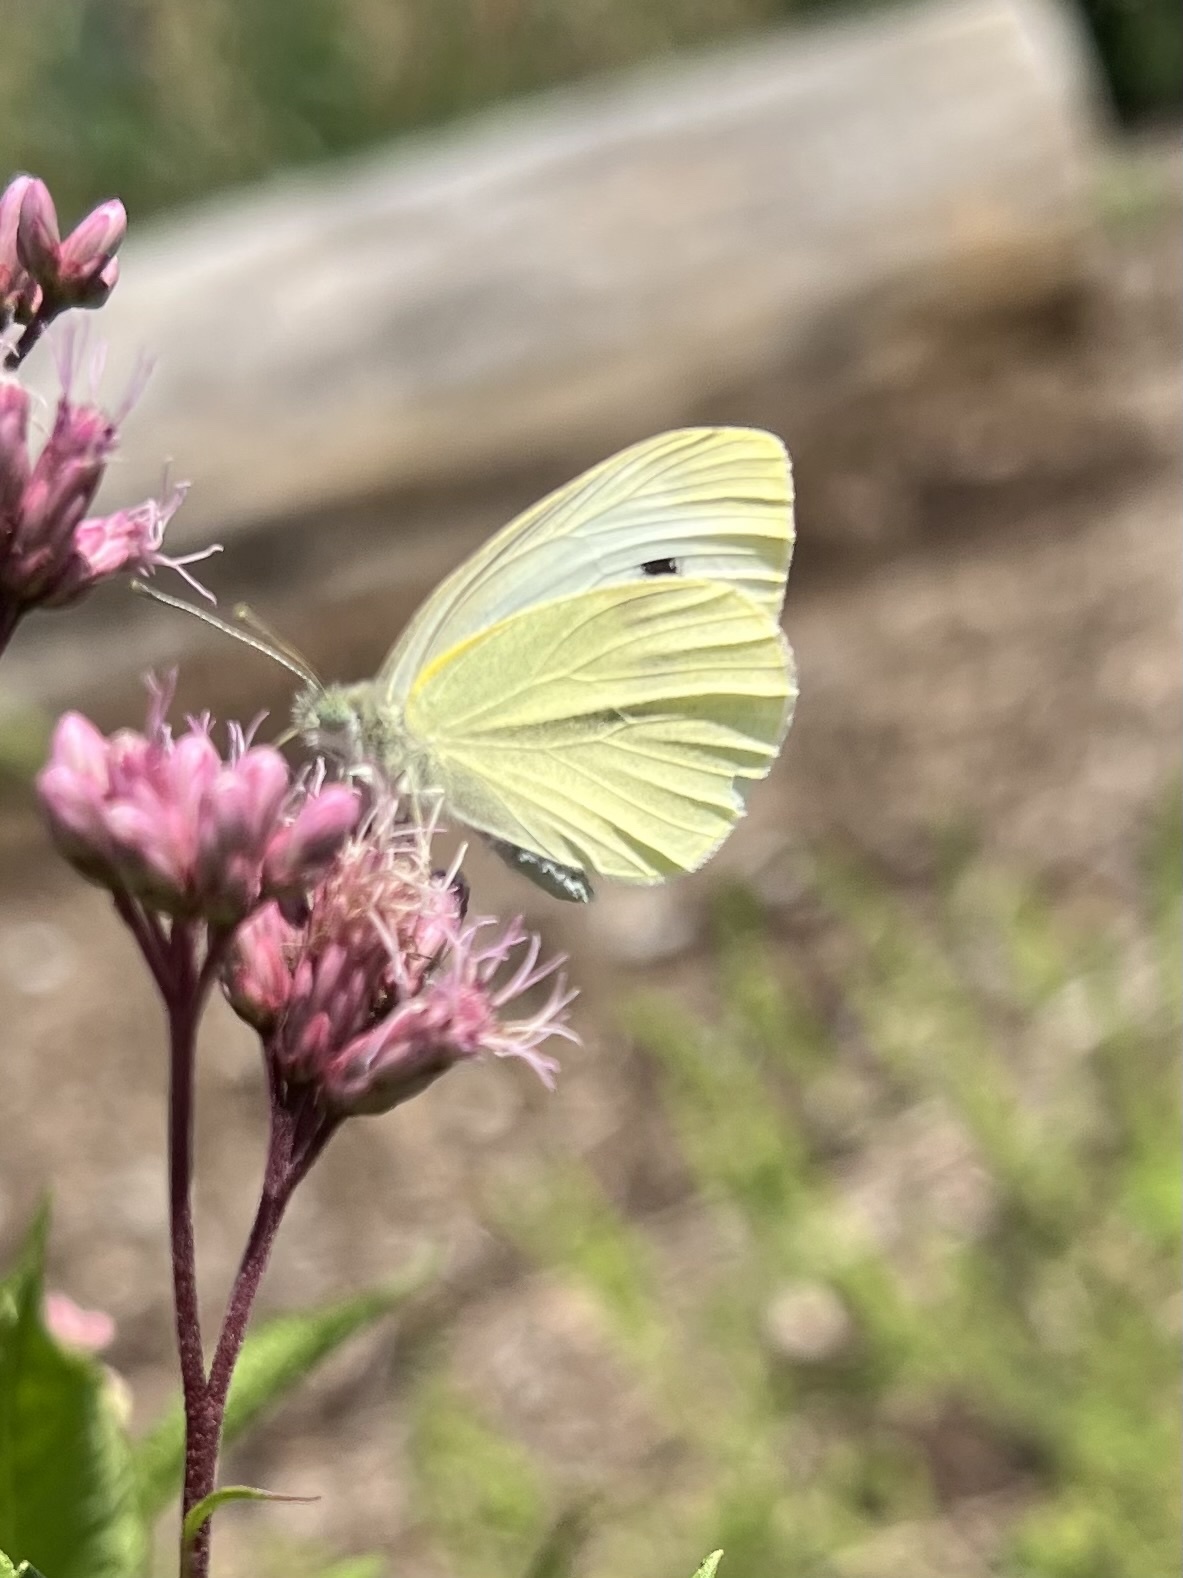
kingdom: Animalia
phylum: Arthropoda
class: Insecta
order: Lepidoptera
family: Pieridae
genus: Pieris
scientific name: Pieris rapae
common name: Small white
